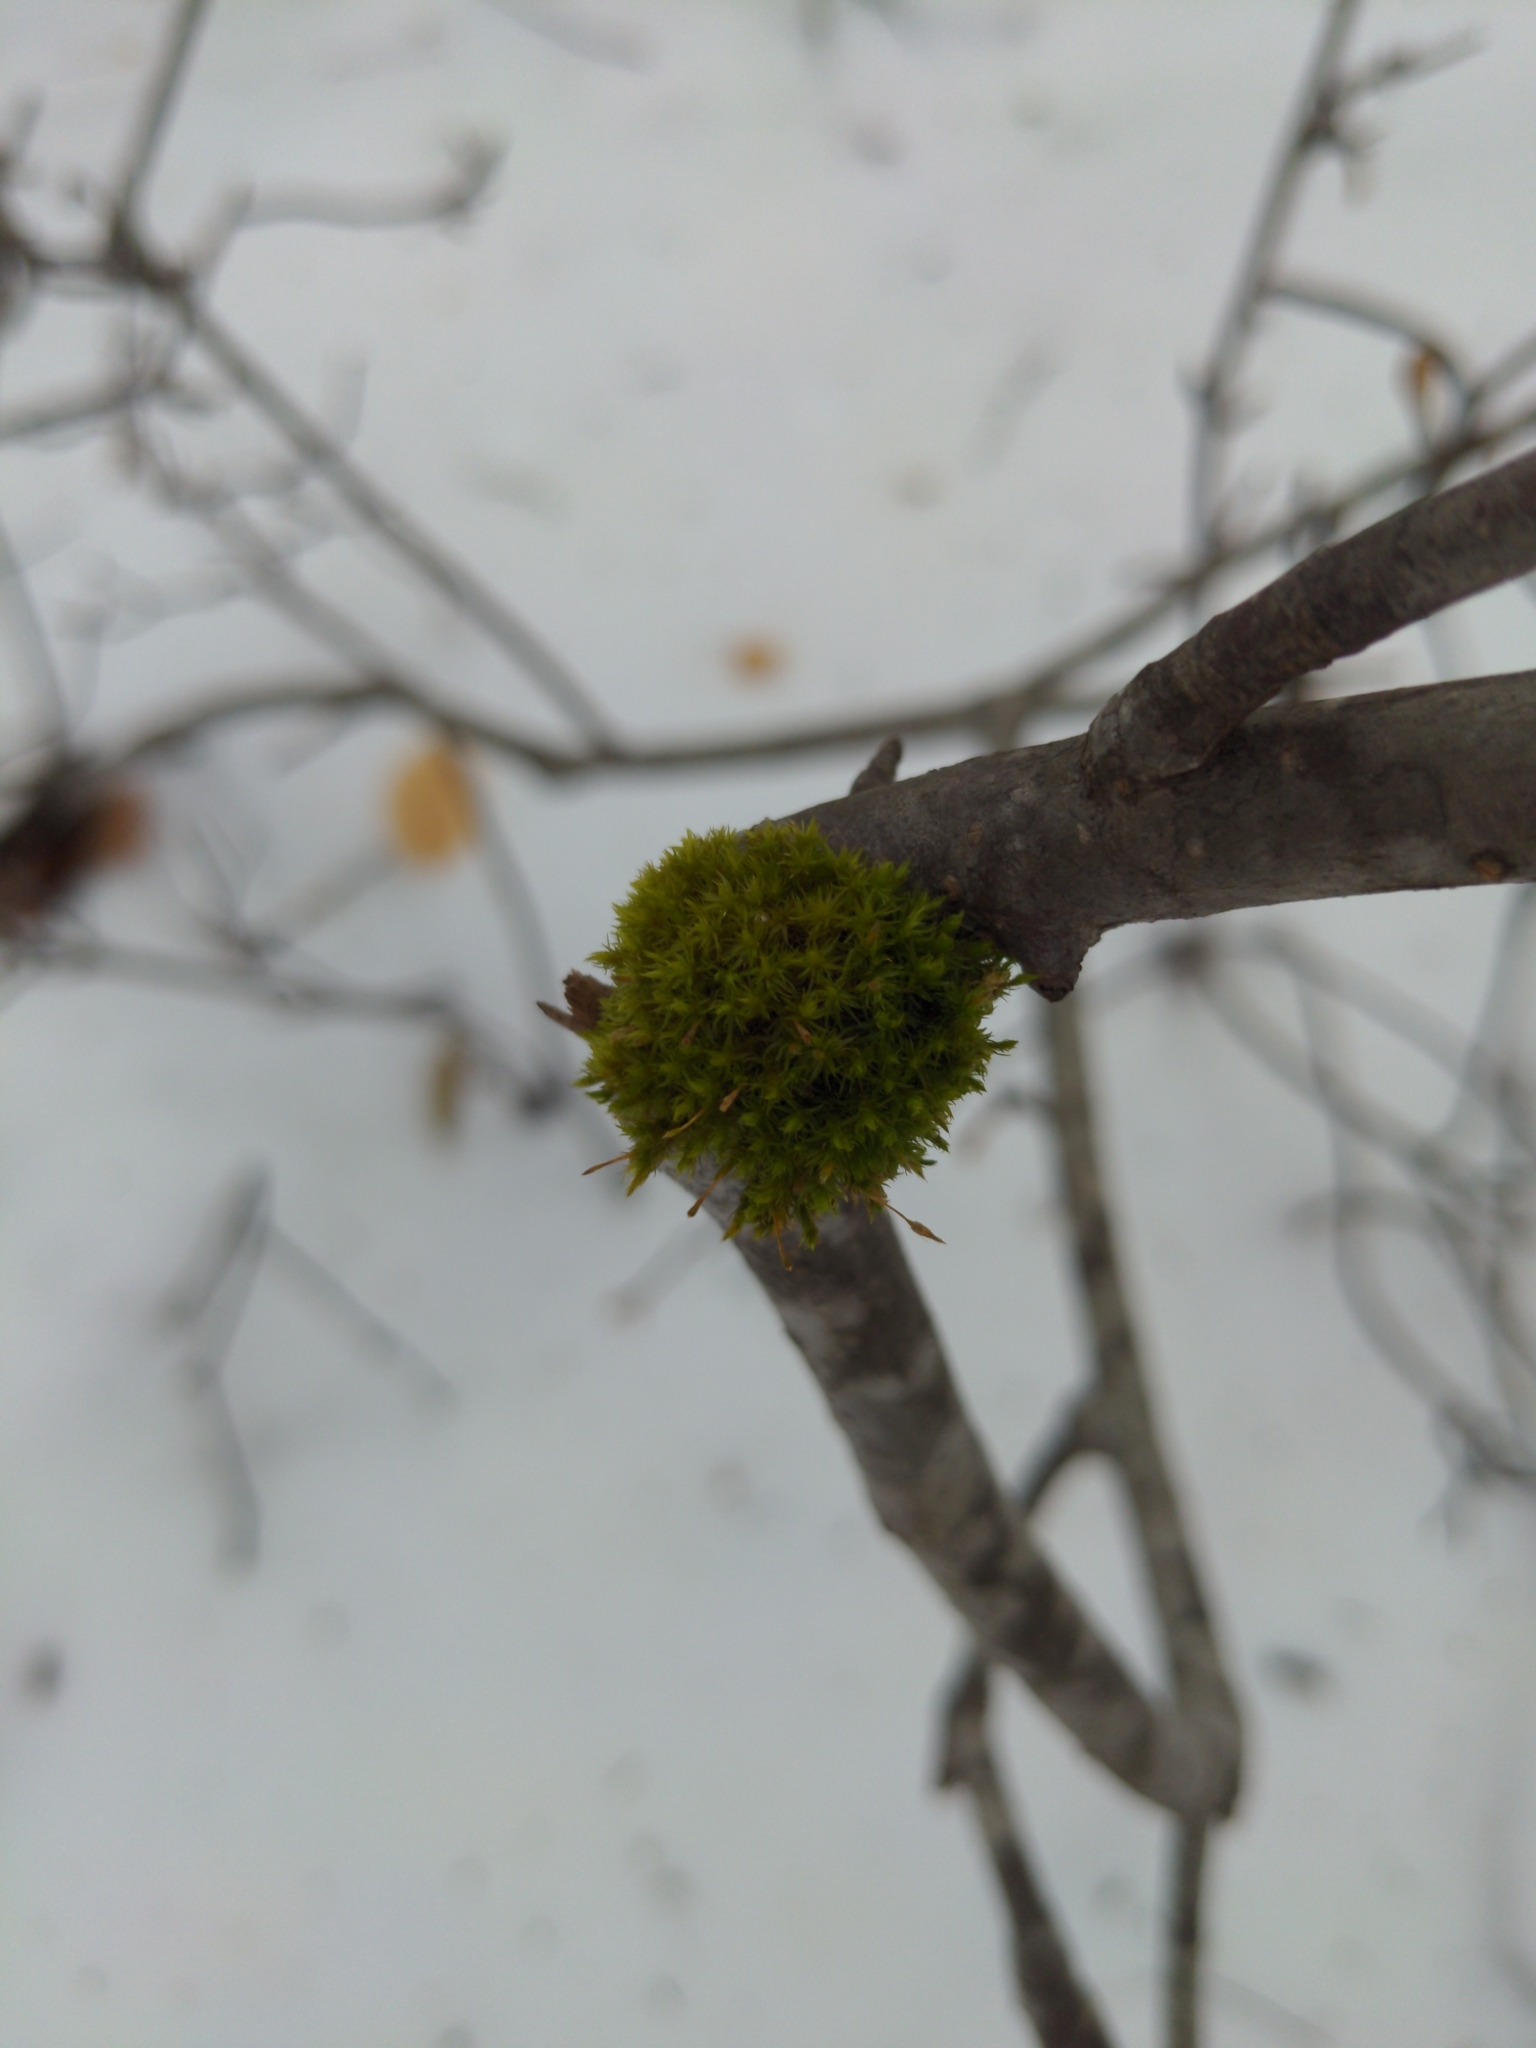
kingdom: Plantae
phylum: Bryophyta
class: Bryopsida
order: Orthotrichales
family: Orthotrichaceae
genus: Ulota
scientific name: Ulota crispa
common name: Crisped pincushion moss
